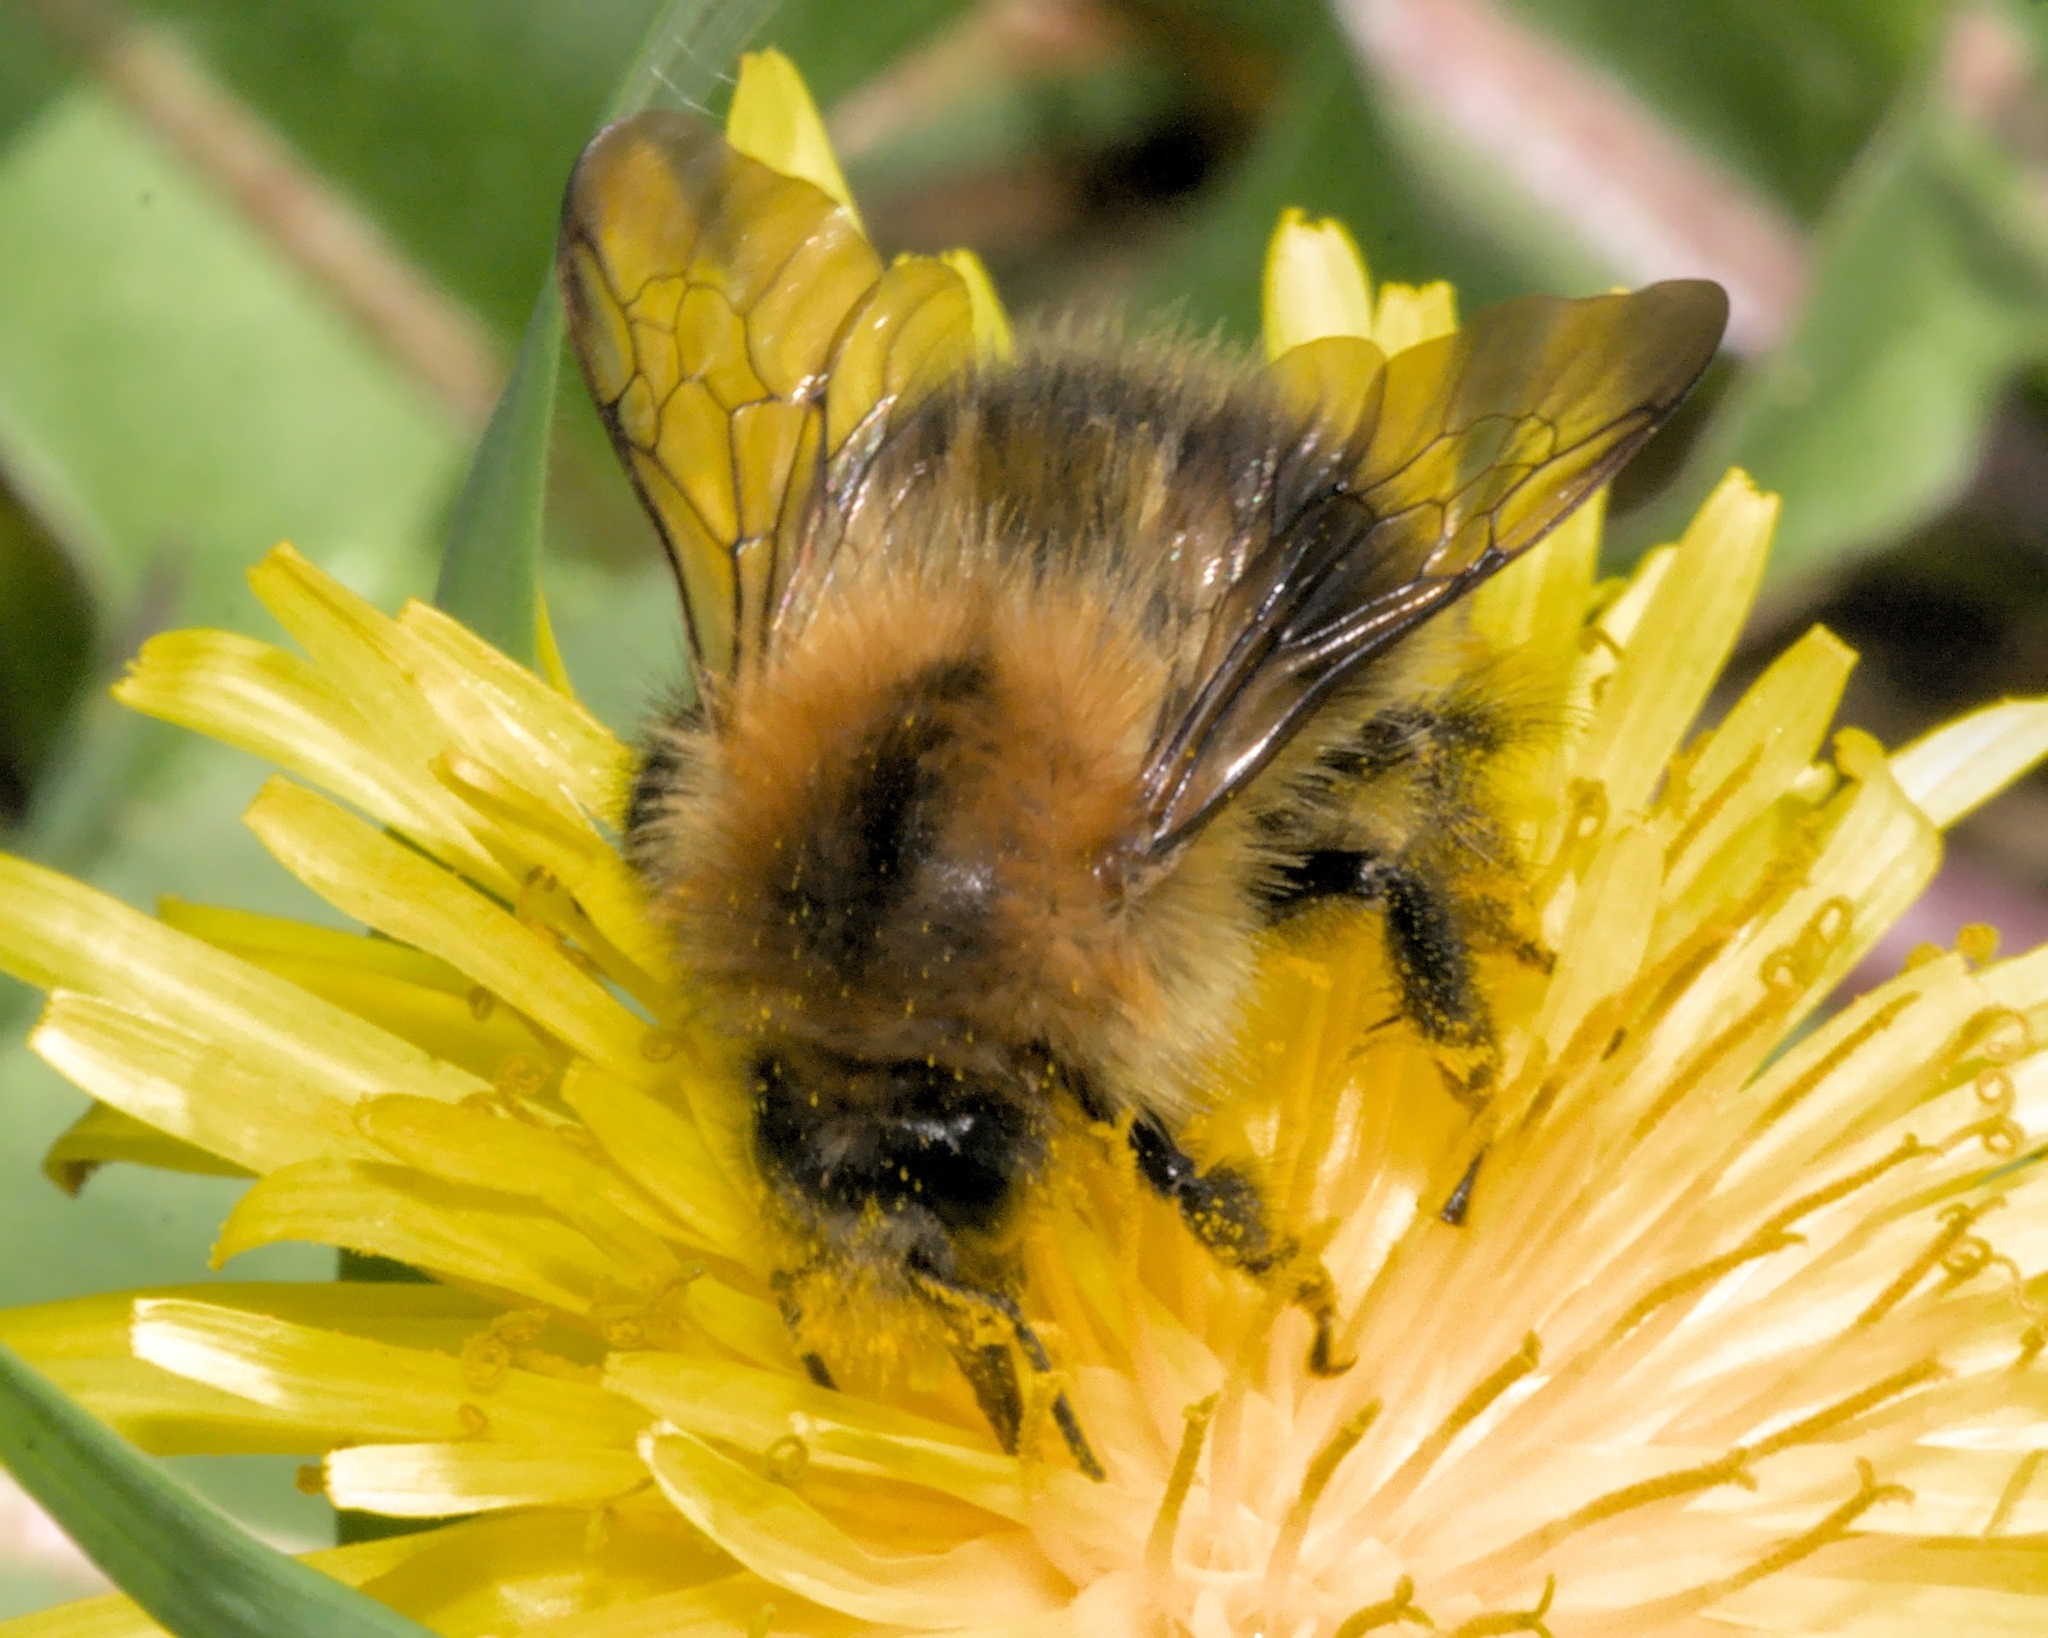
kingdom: Animalia
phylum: Arthropoda
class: Insecta
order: Hymenoptera
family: Apidae
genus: Bombus
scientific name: Bombus pascuorum
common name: Common carder bee
